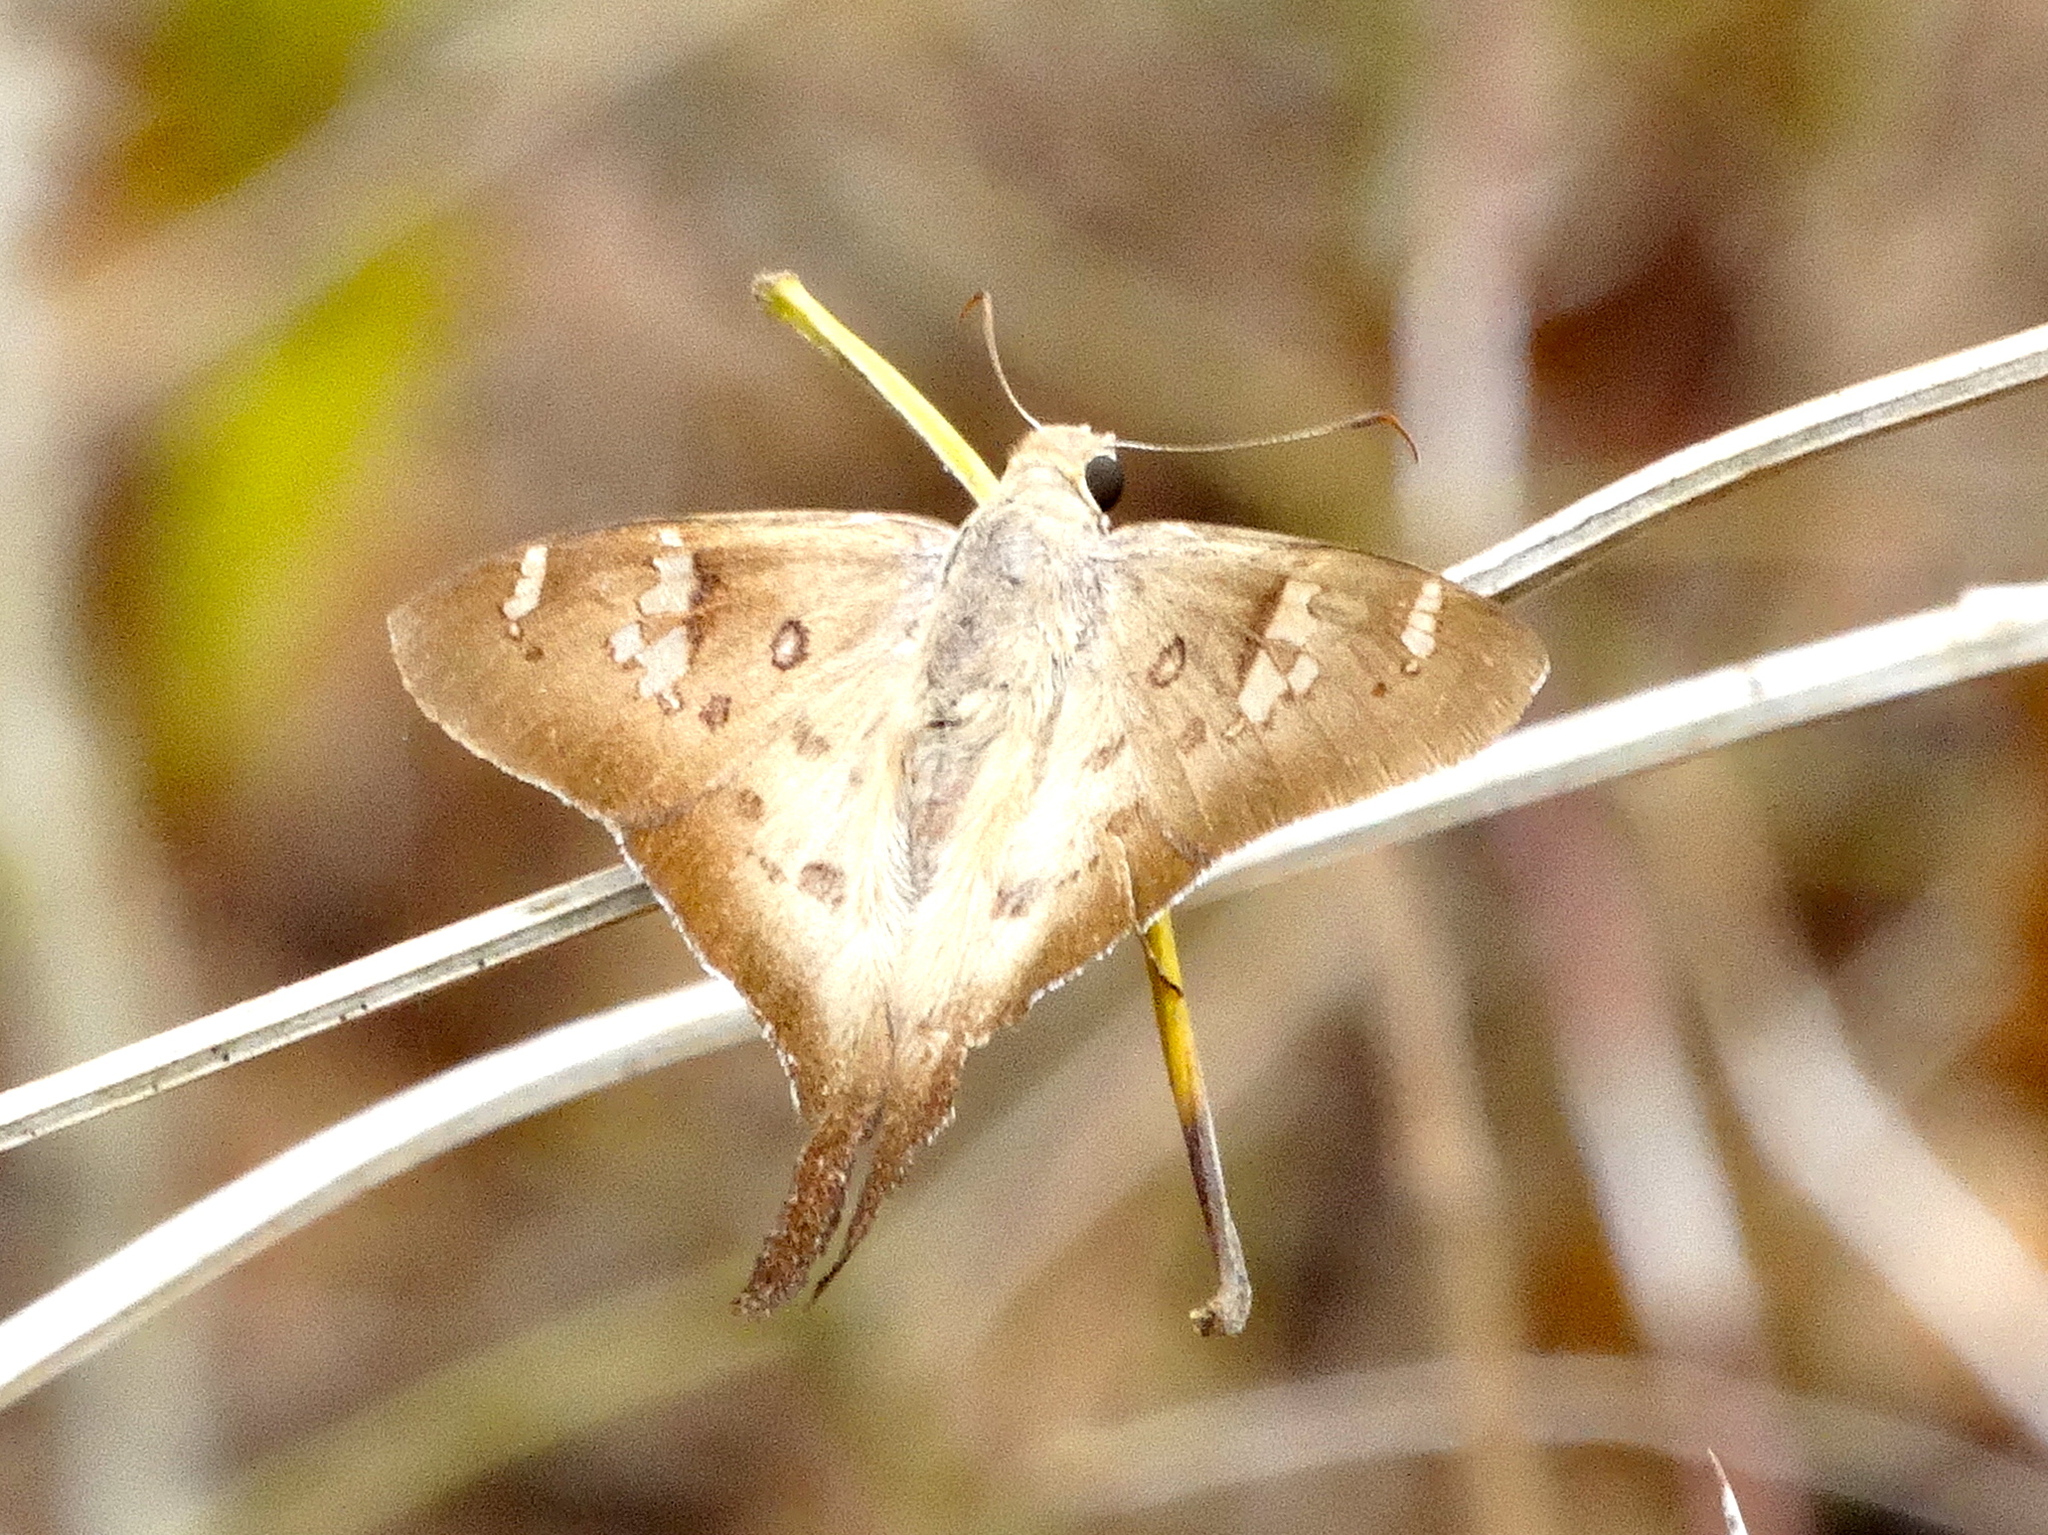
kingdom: Animalia
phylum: Arthropoda
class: Insecta
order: Lepidoptera
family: Hesperiidae
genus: Ectomis
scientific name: Ectomis
